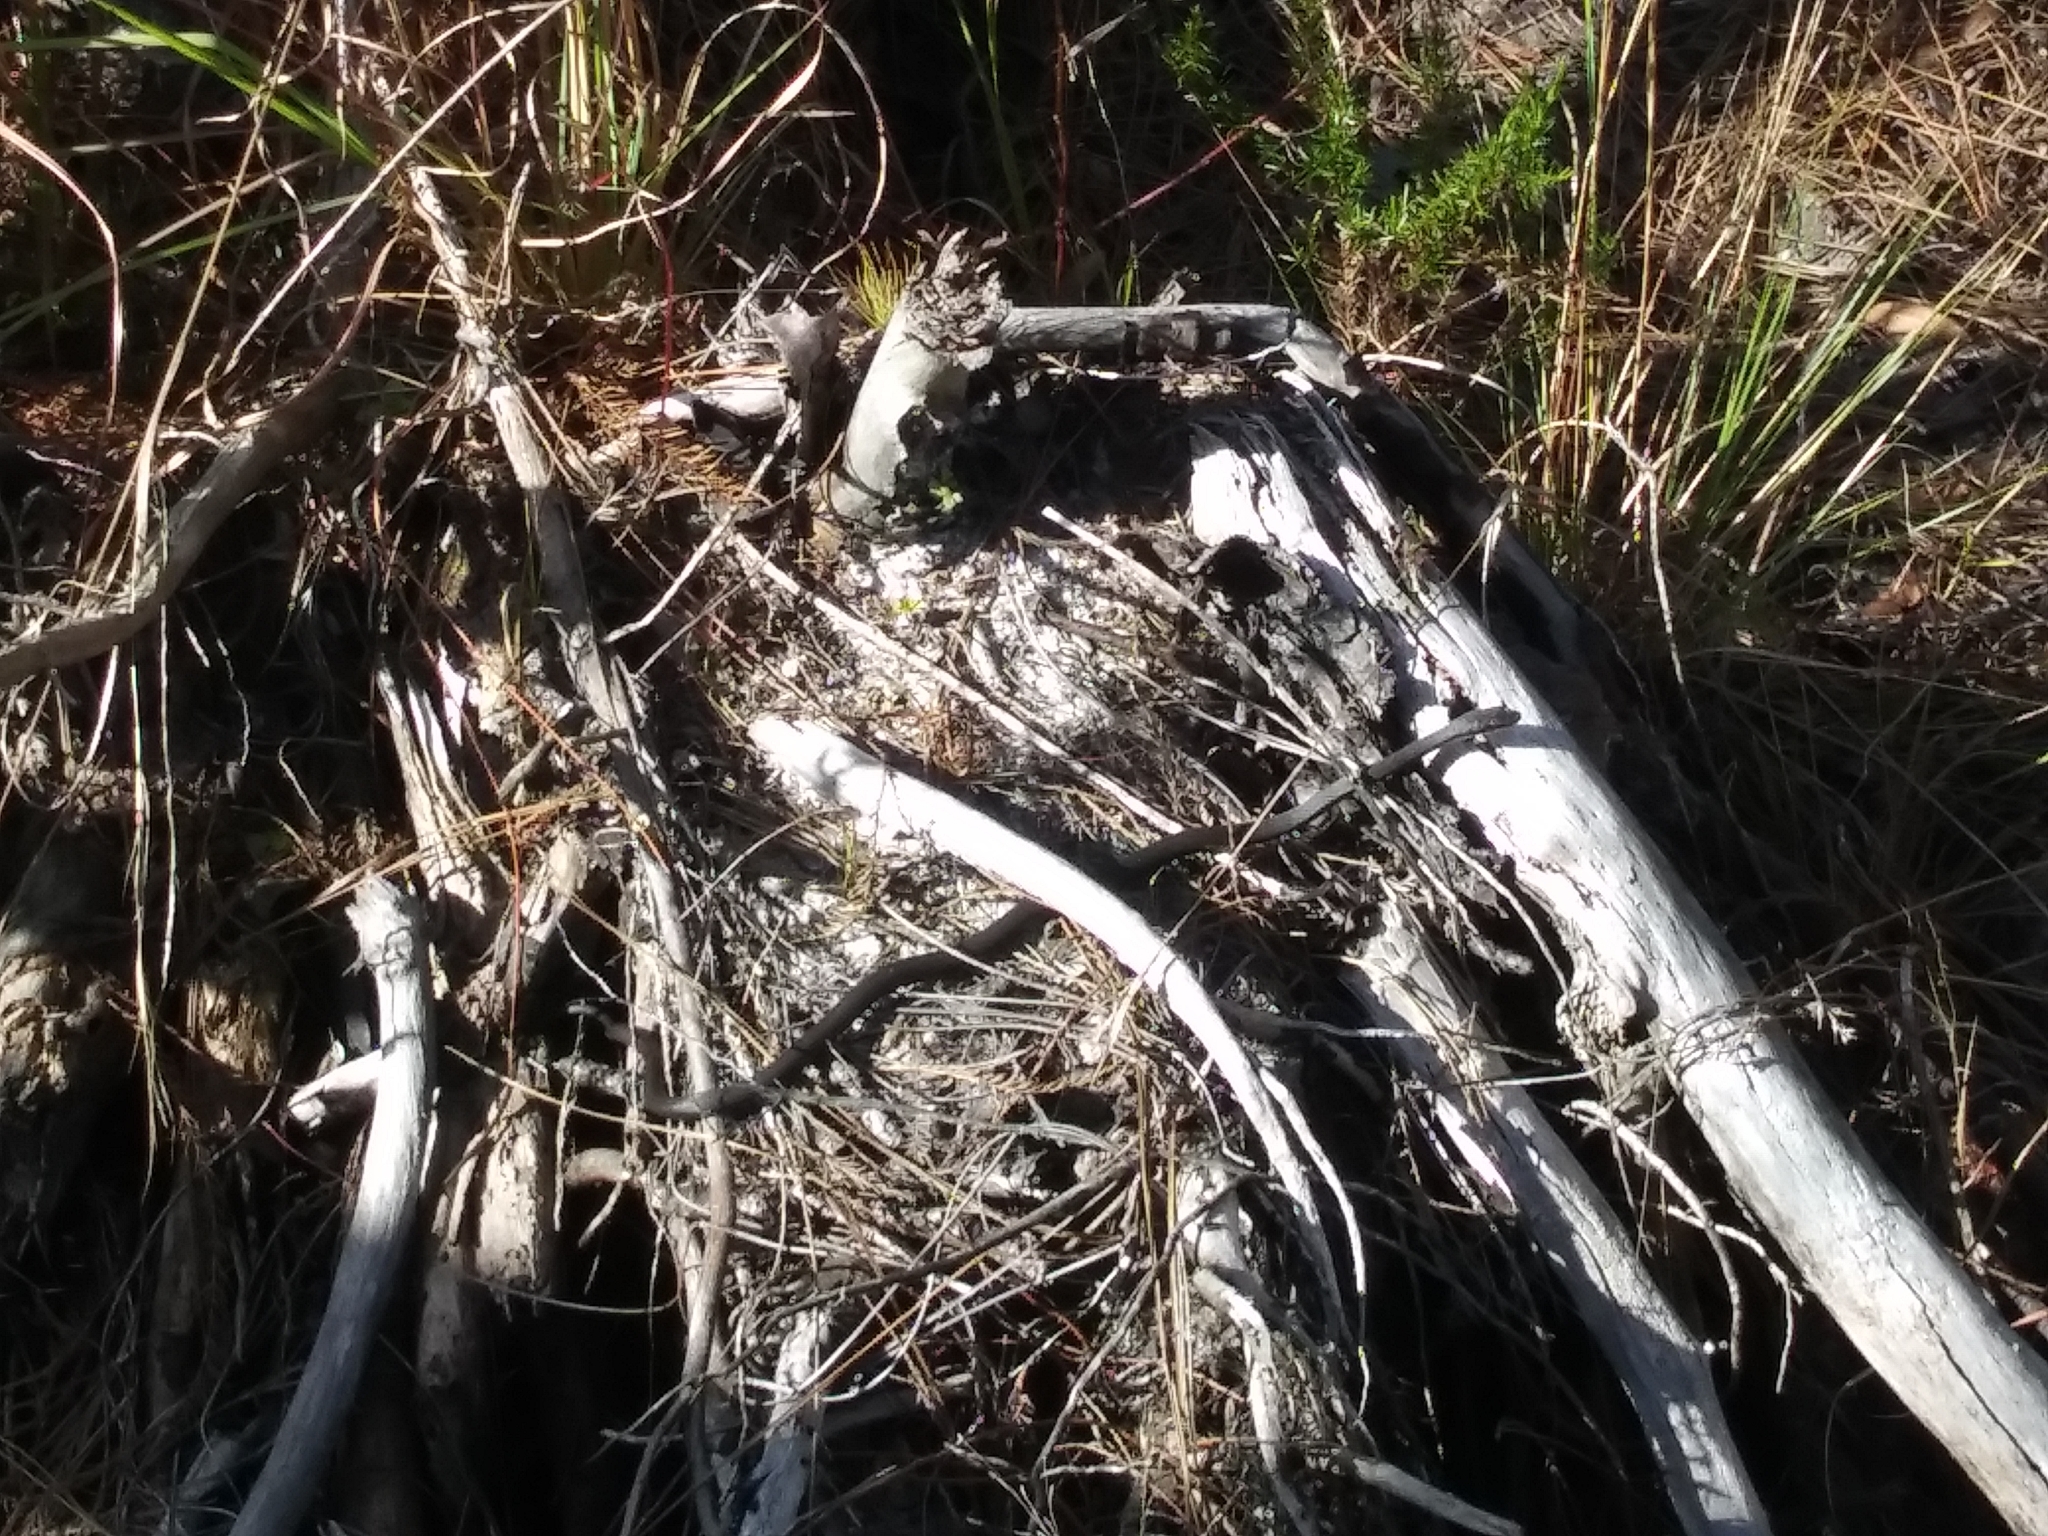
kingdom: Animalia
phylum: Chordata
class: Squamata
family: Colubridae
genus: Coluber
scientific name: Coluber constrictor
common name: Eastern racer
